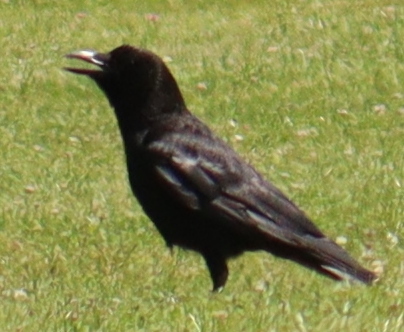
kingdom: Animalia
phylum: Chordata
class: Aves
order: Passeriformes
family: Corvidae
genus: Corvus
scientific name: Corvus corone
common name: Carrion crow
